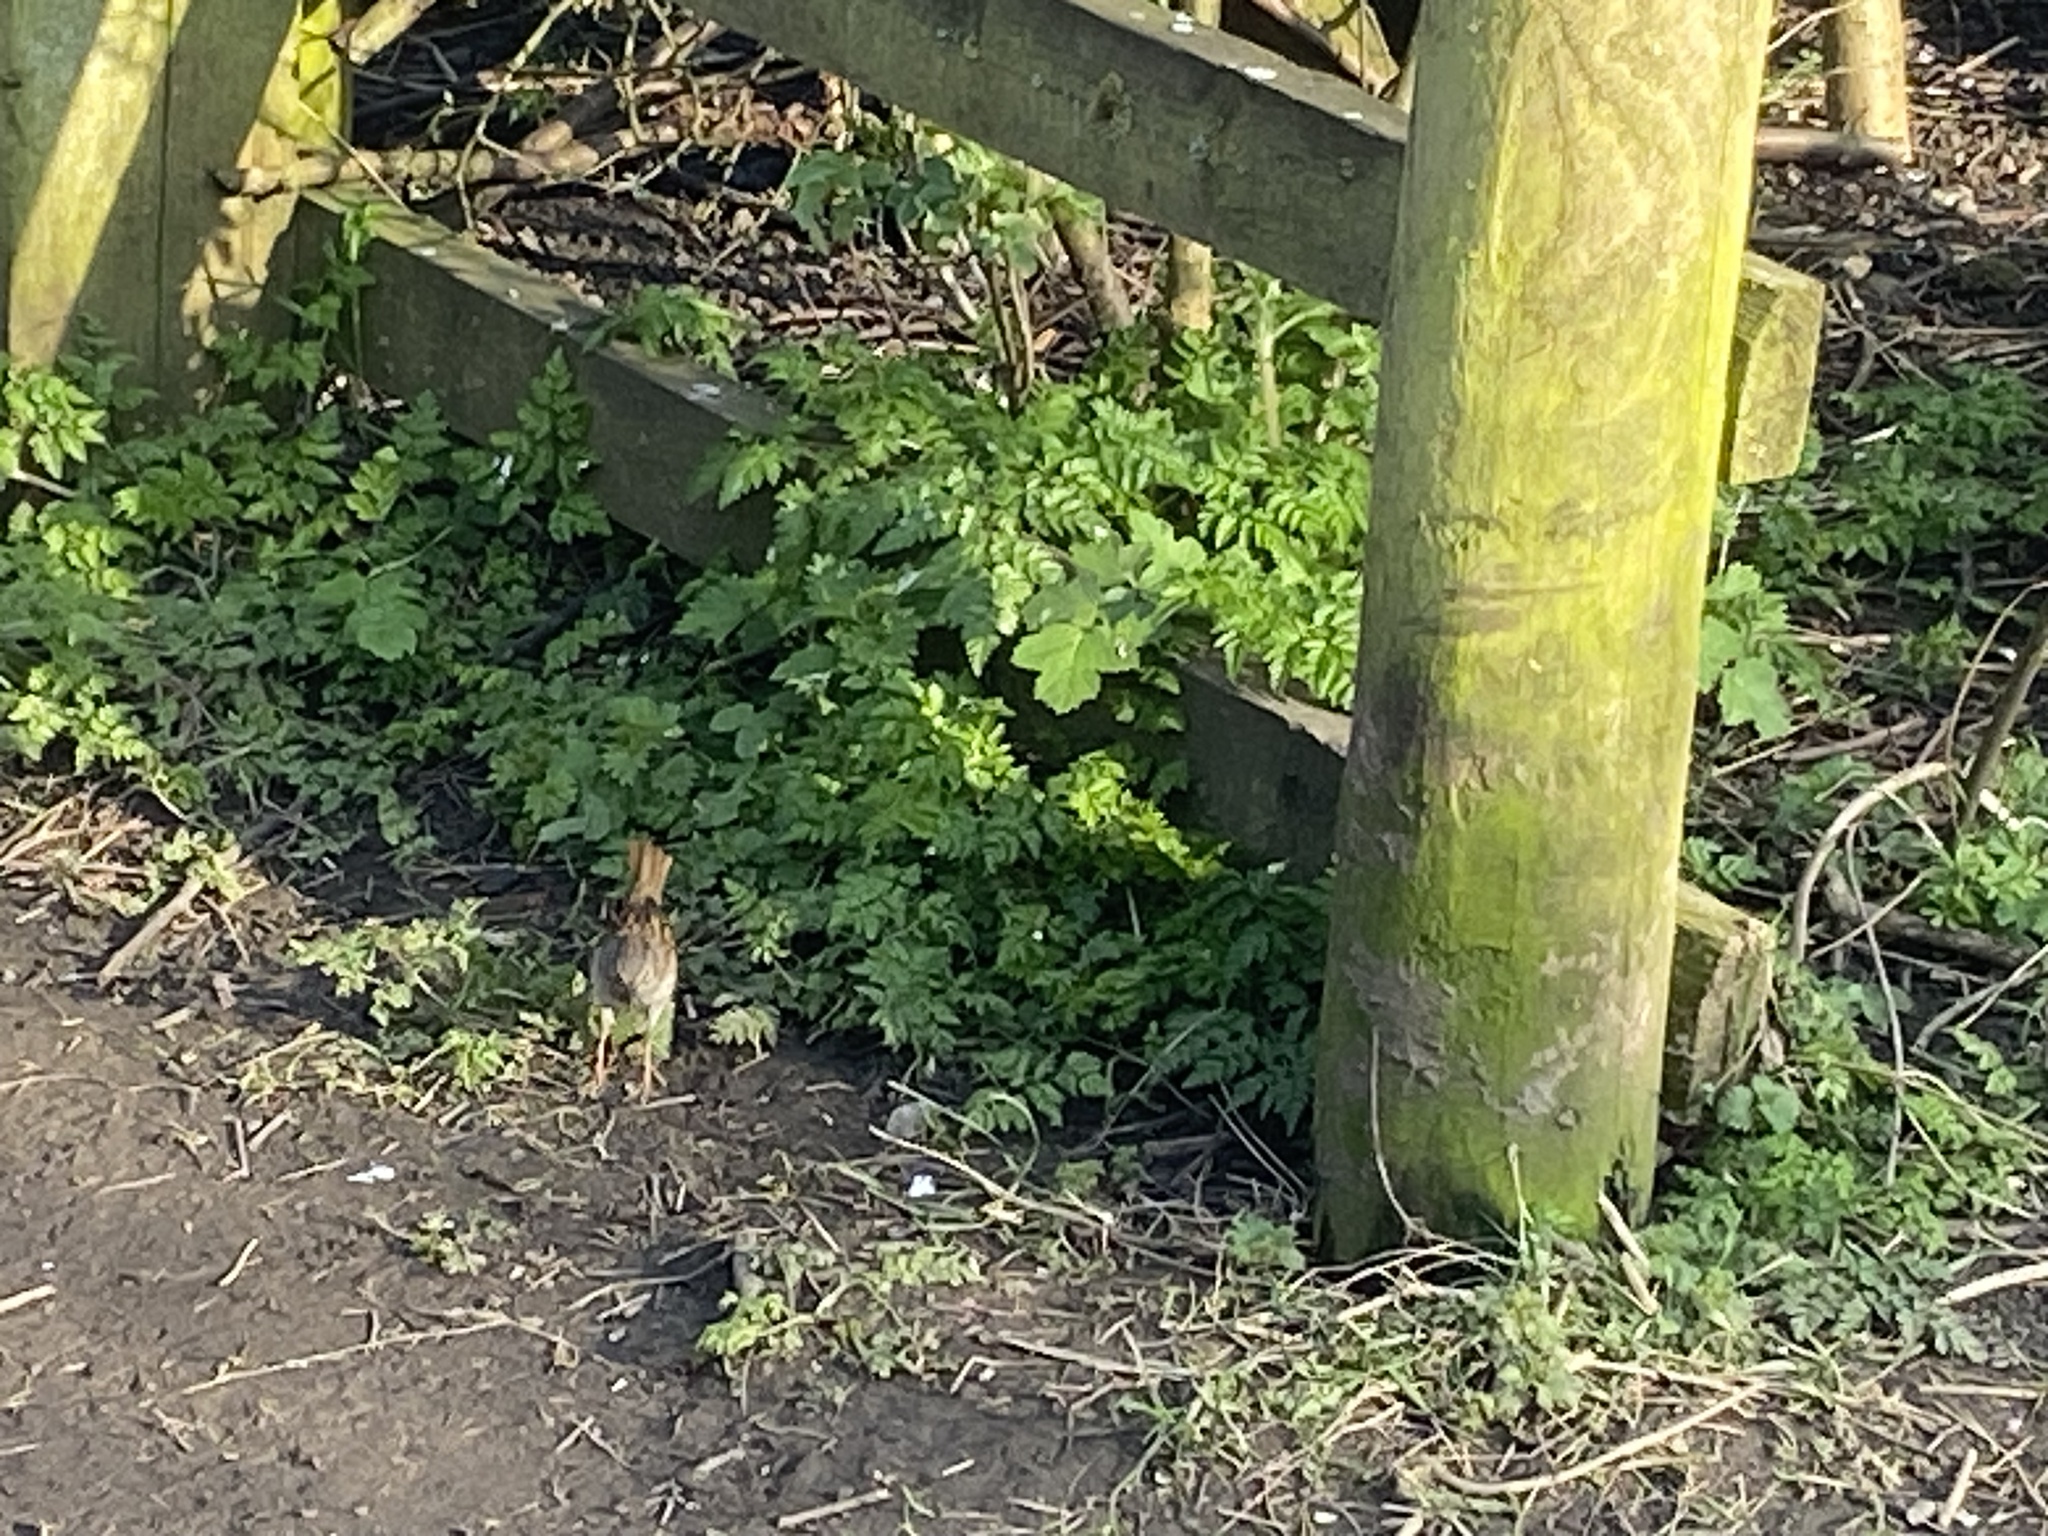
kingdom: Animalia
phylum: Chordata
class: Aves
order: Passeriformes
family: Prunellidae
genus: Prunella
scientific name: Prunella modularis
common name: Dunnock
